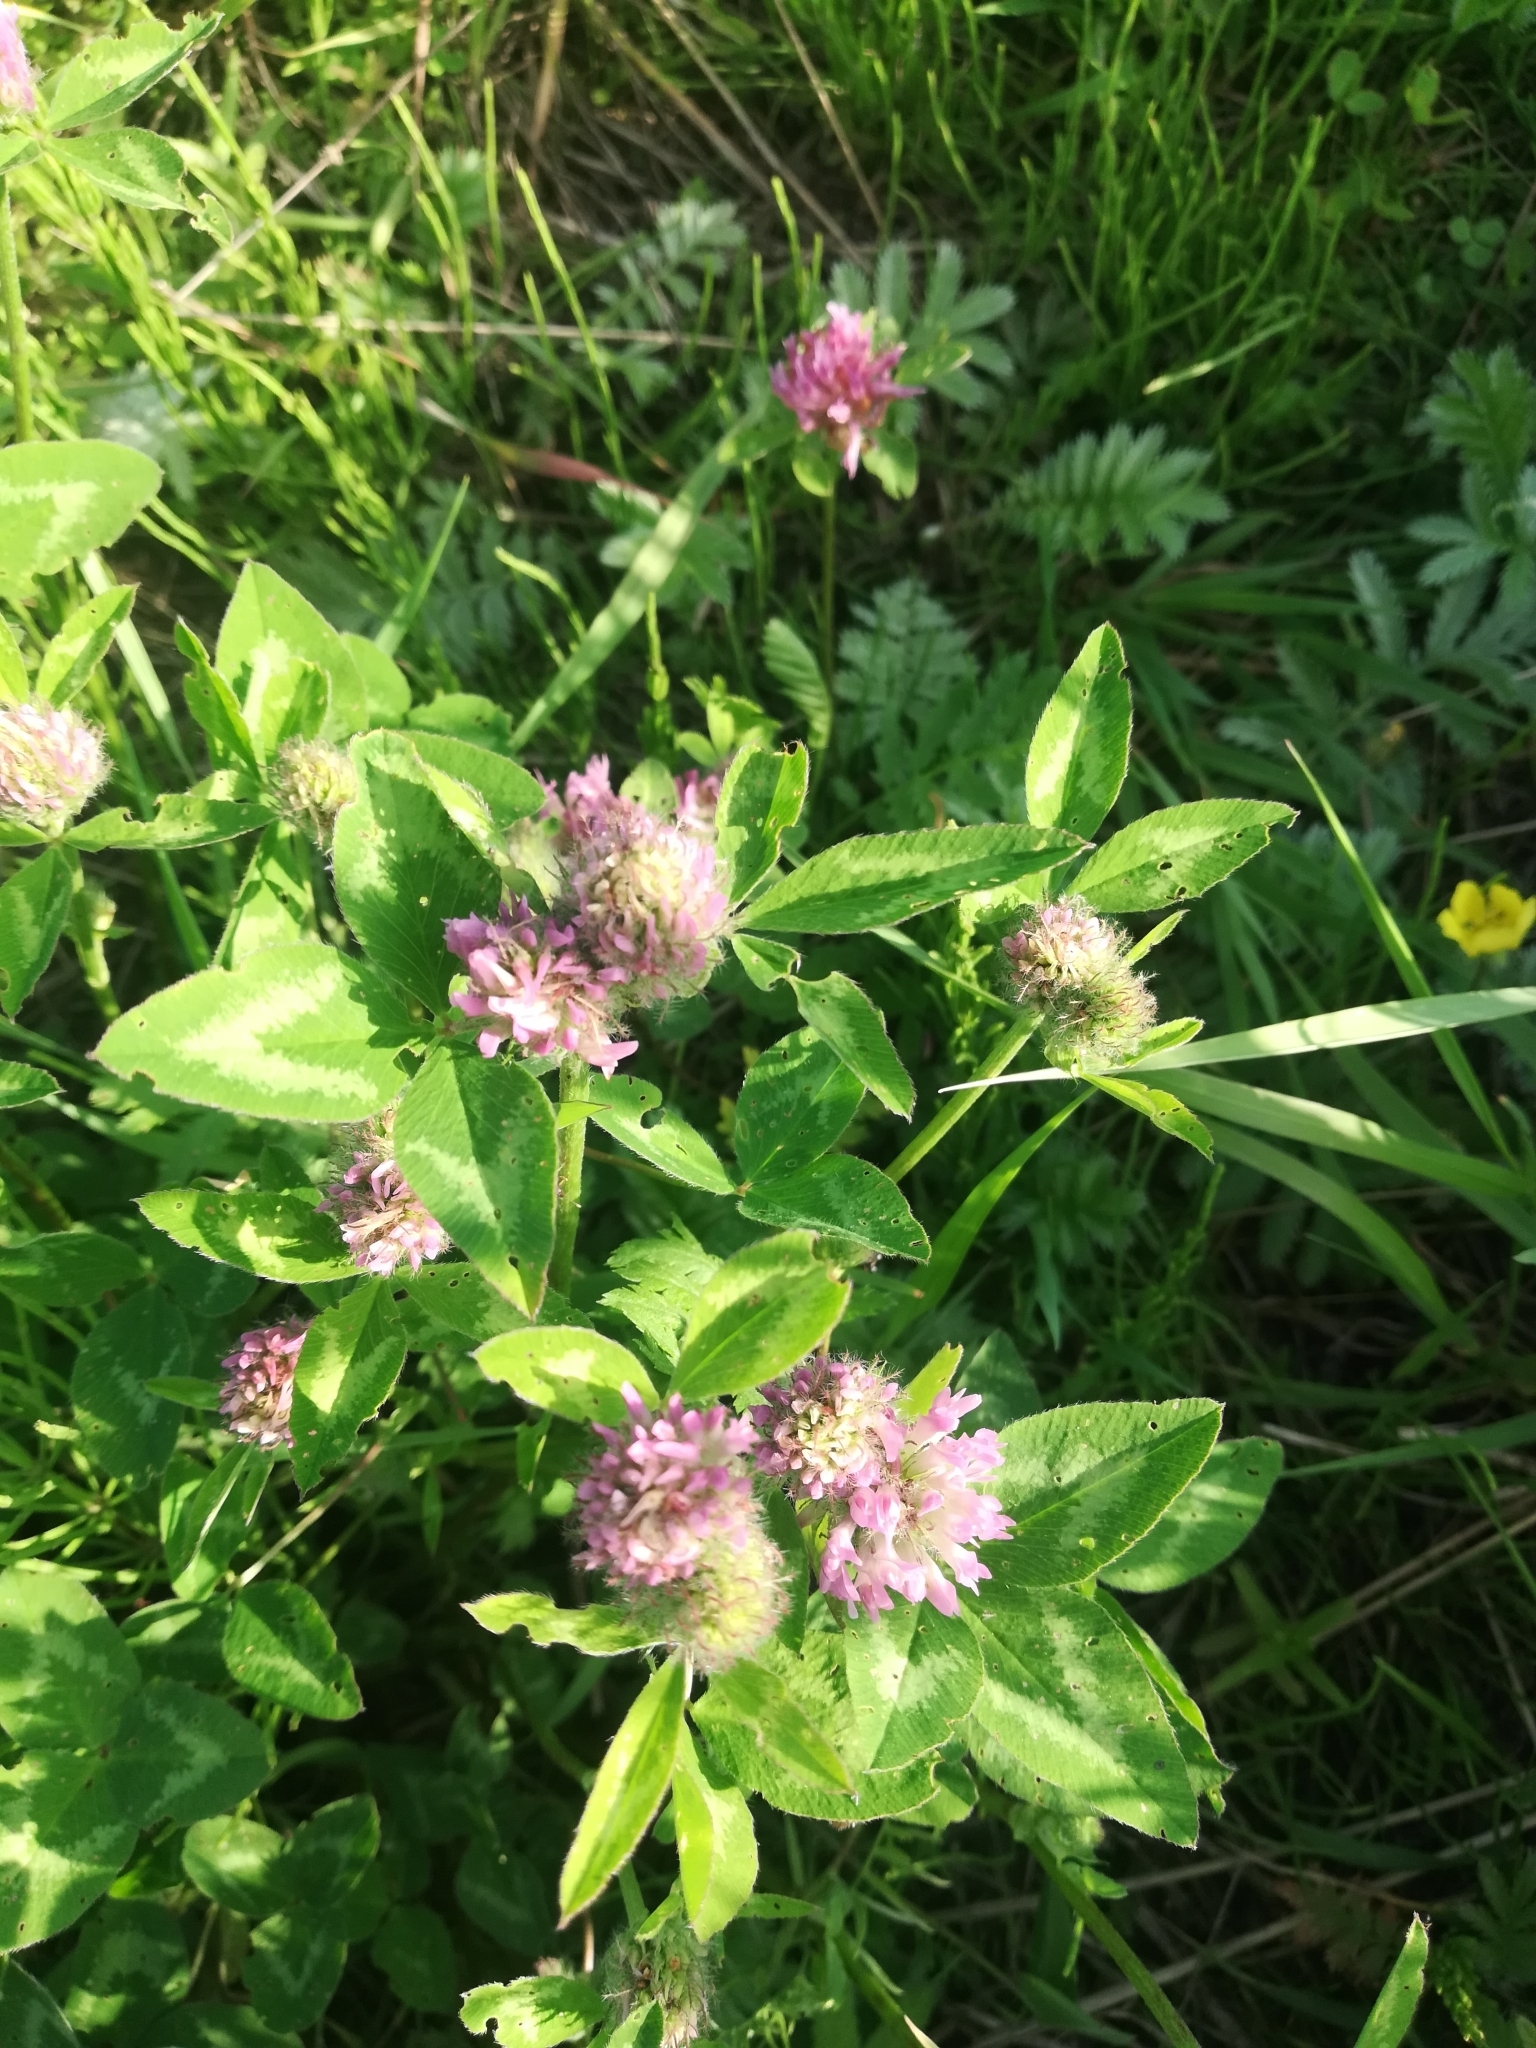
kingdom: Plantae
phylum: Tracheophyta
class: Magnoliopsida
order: Fabales
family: Fabaceae
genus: Trifolium
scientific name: Trifolium pratense
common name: Red clover
